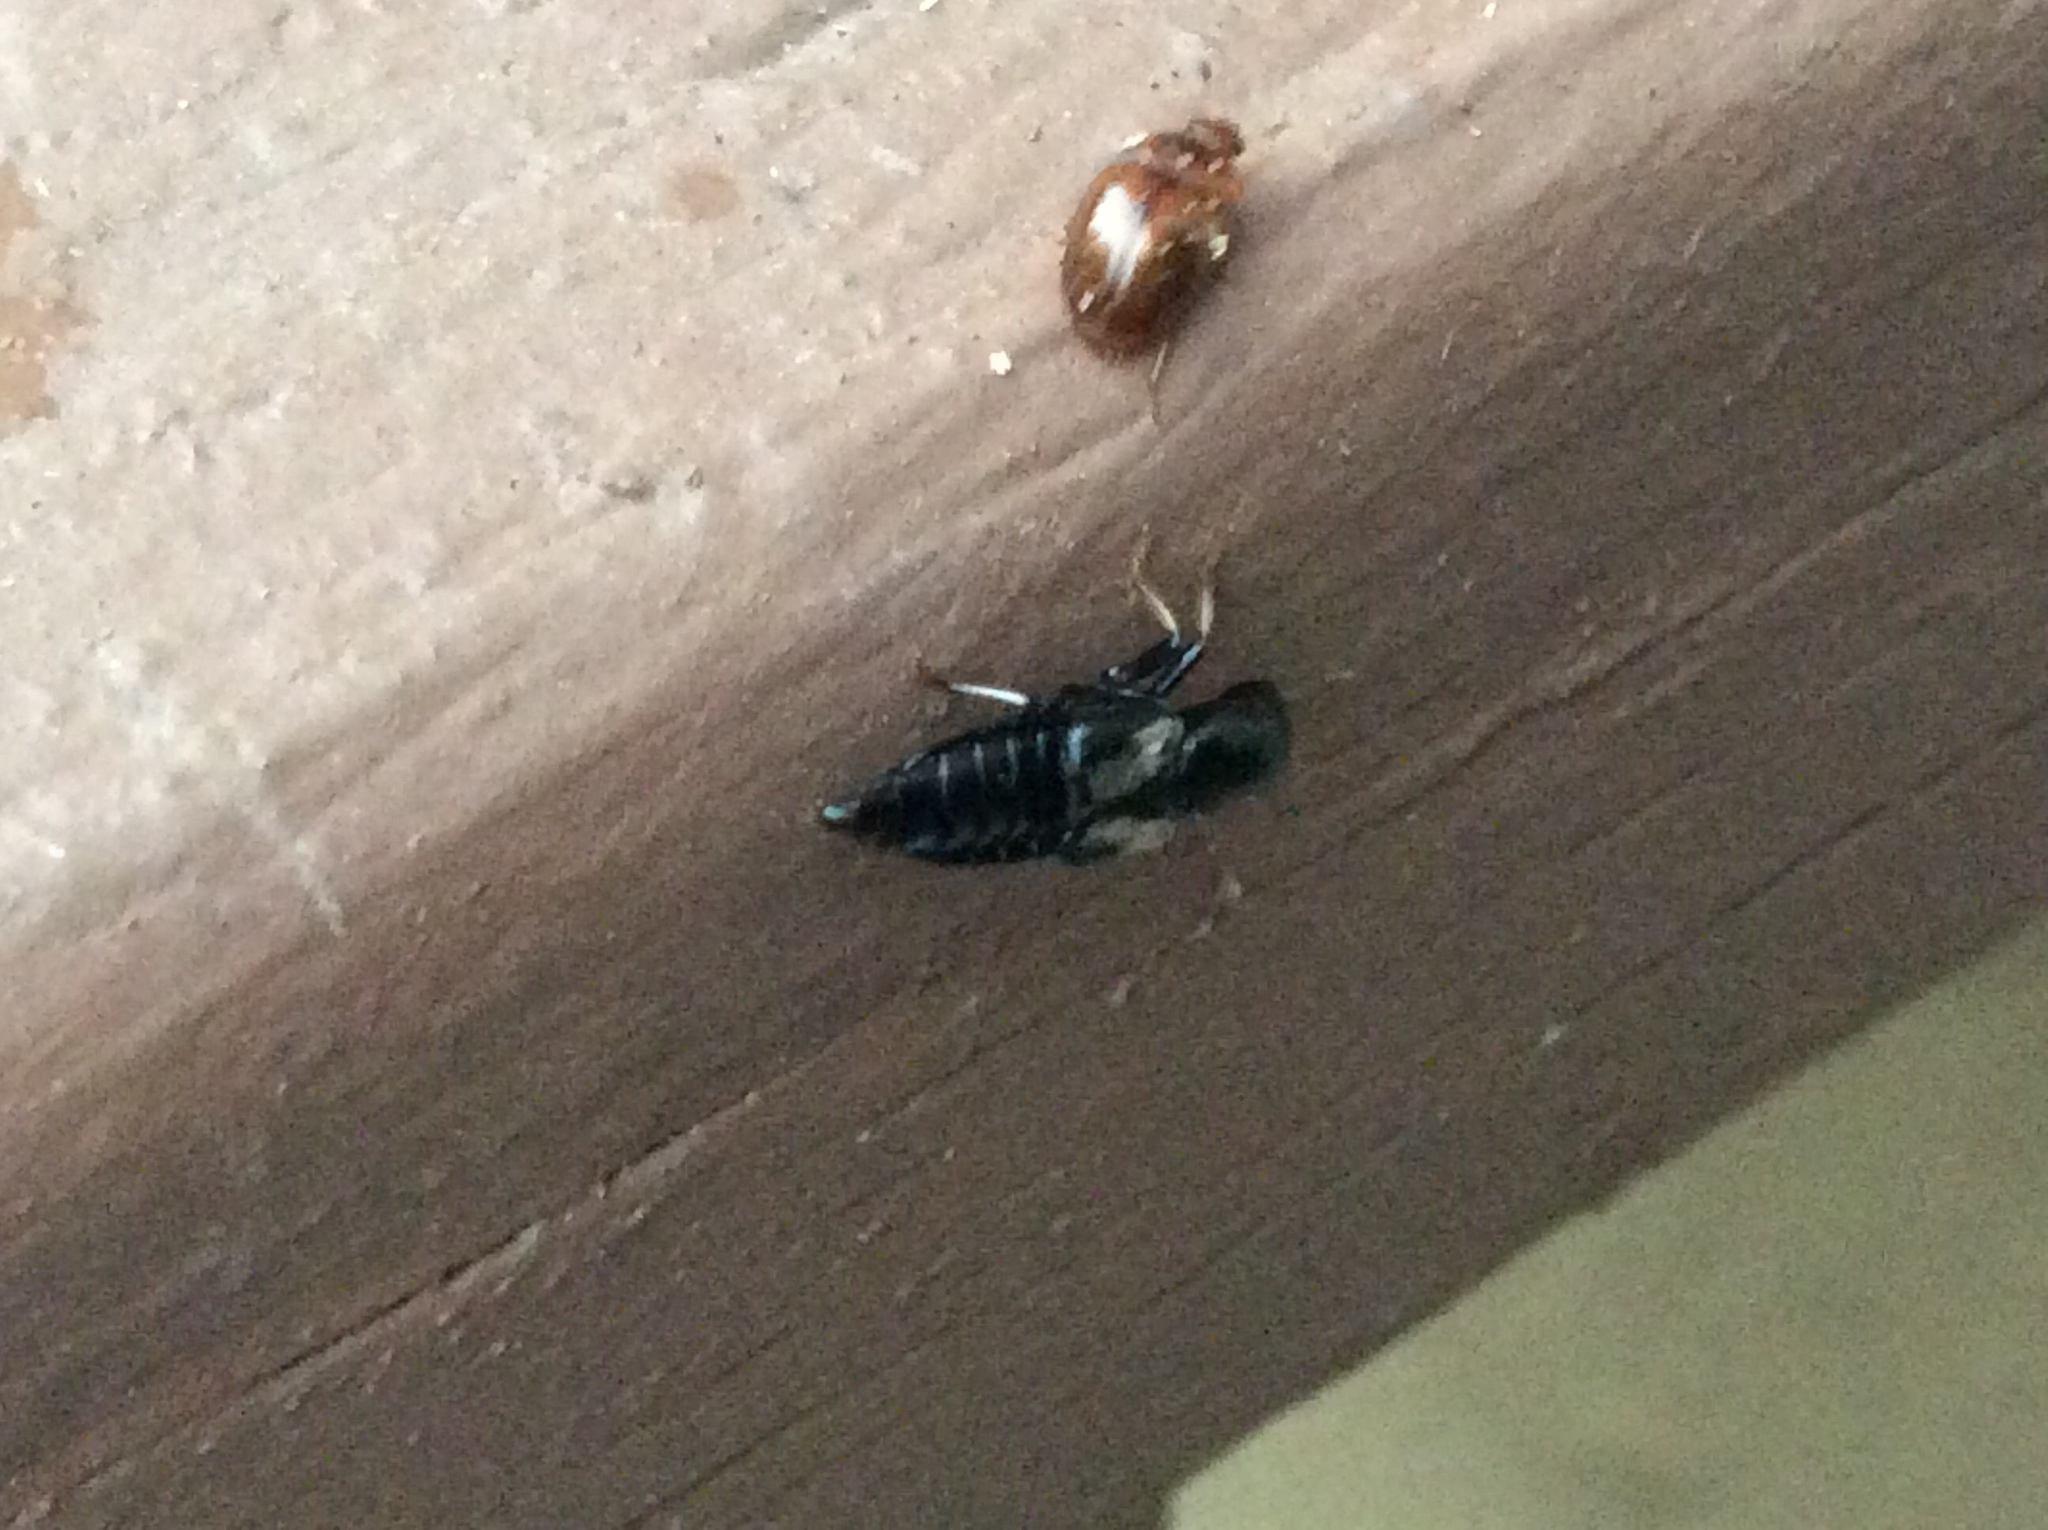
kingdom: Animalia
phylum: Arthropoda
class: Insecta
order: Coleoptera
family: Staphylinidae
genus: Oxyporus
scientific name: Oxyporus femoralis
